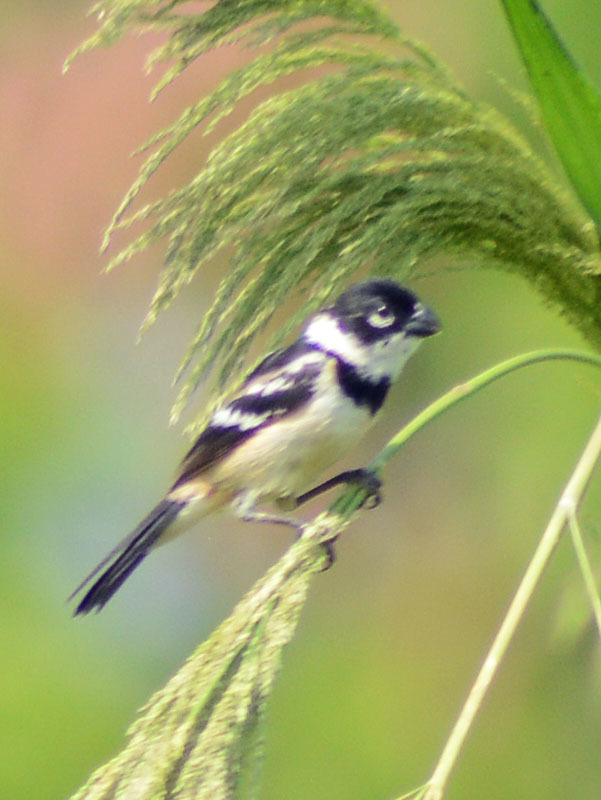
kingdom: Animalia
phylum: Chordata
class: Aves
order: Passeriformes
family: Thraupidae
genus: Sporophila
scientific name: Sporophila morelleti
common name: Morelet's seedeater
